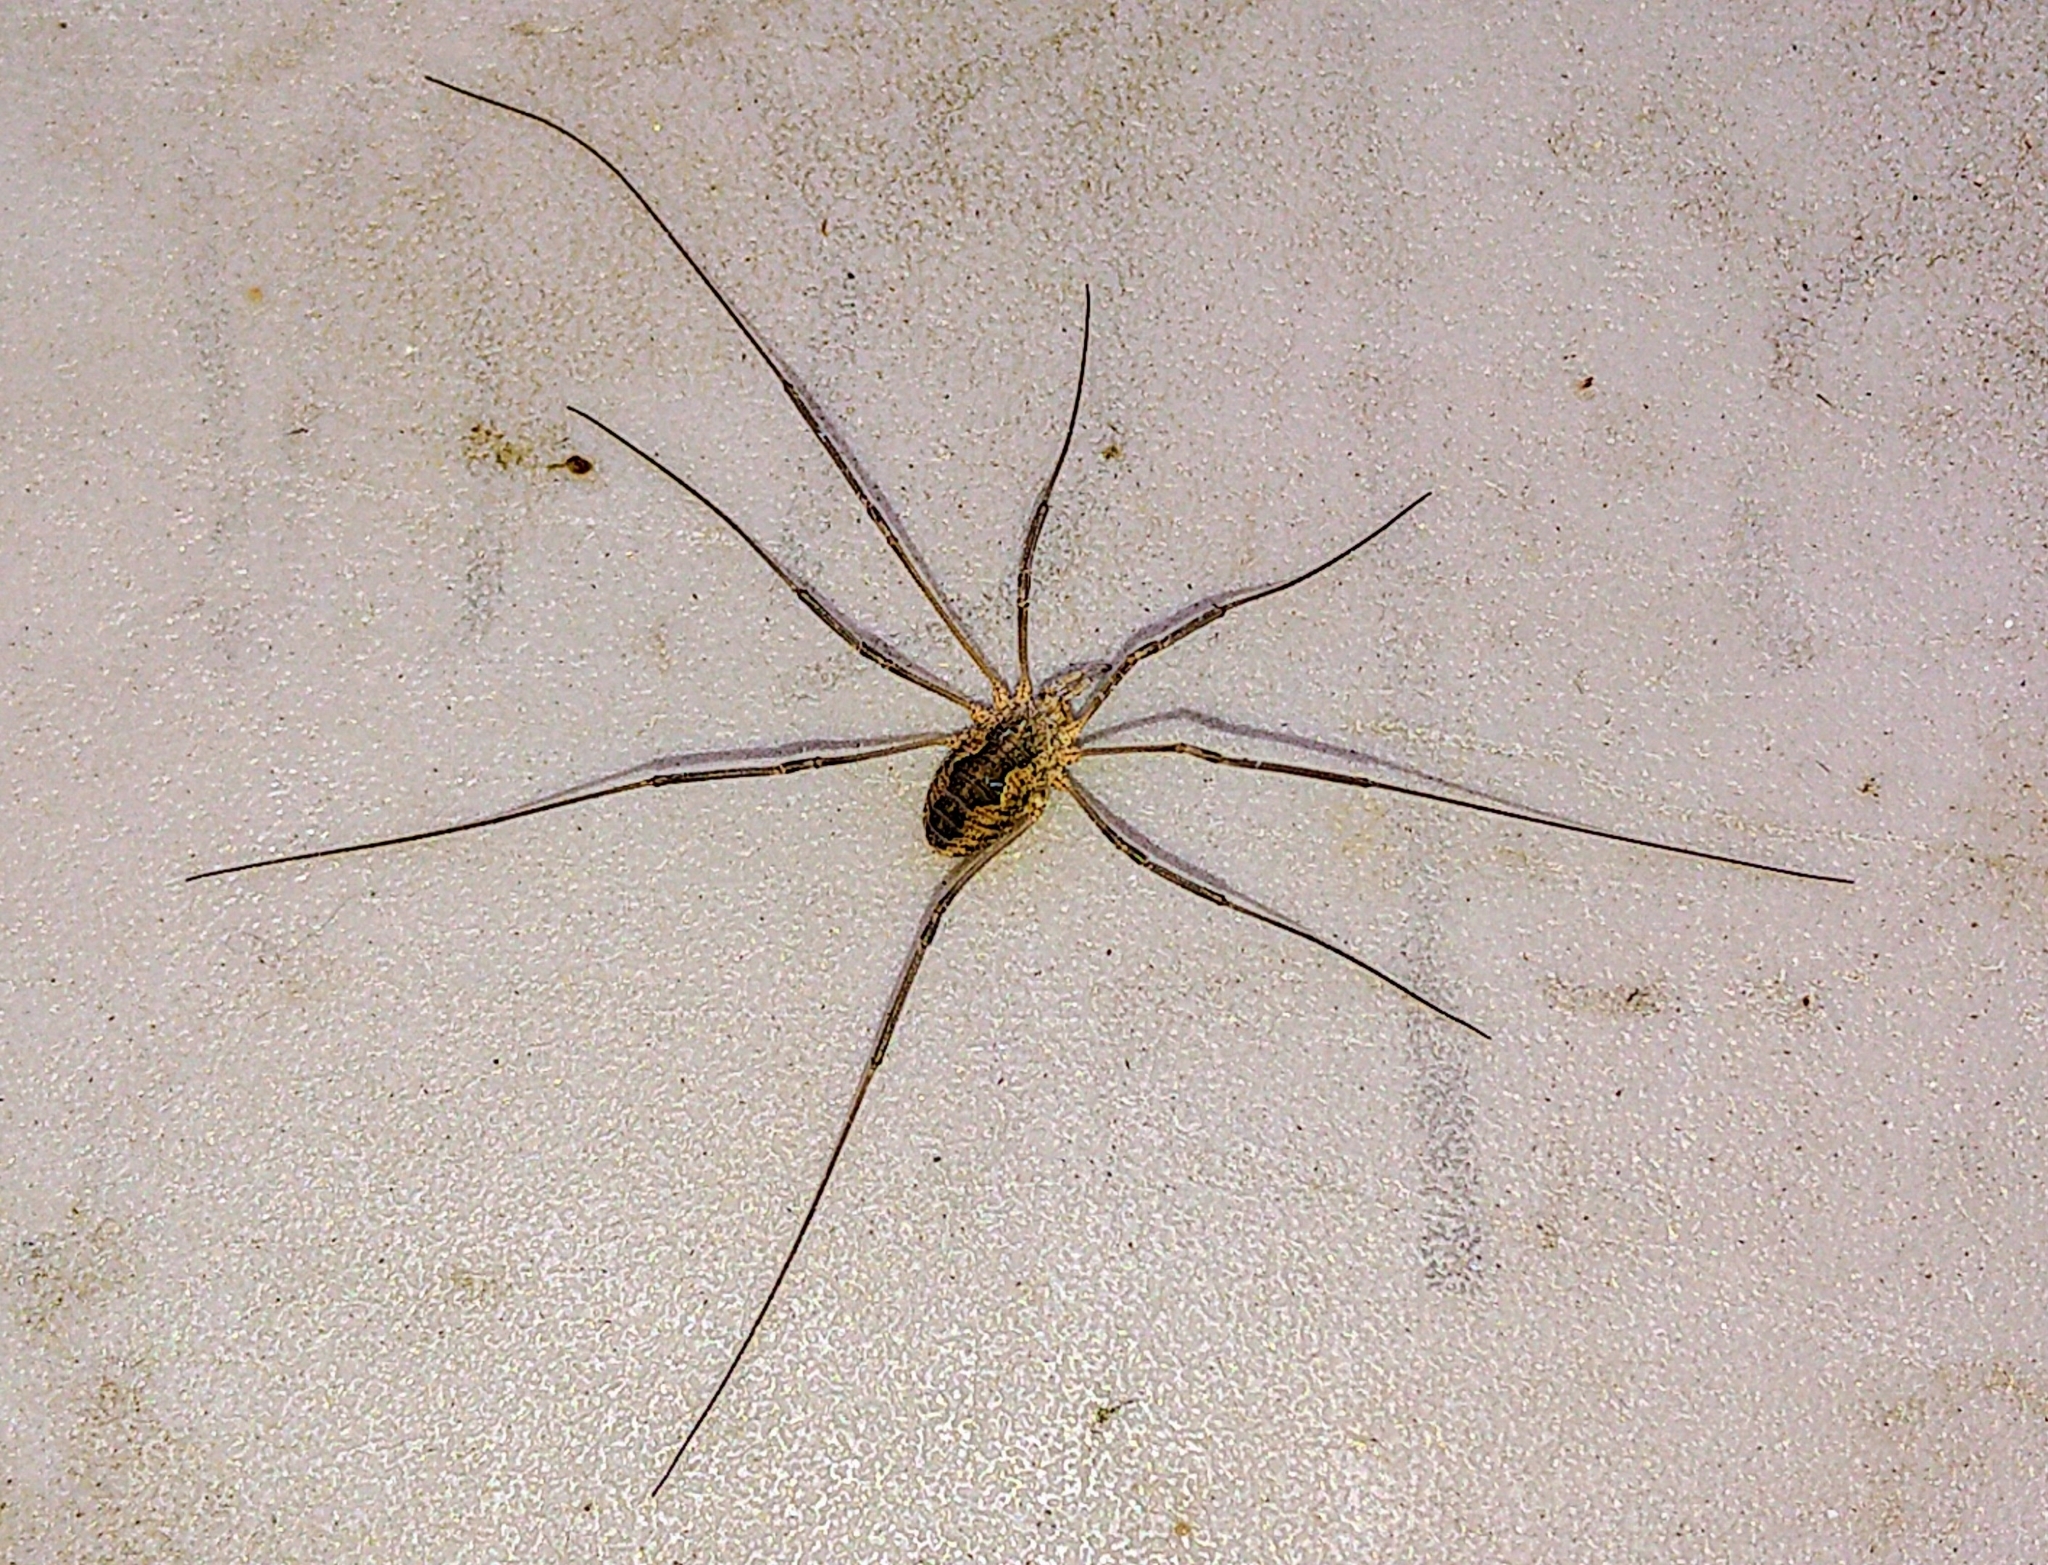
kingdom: Animalia
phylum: Arthropoda
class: Arachnida
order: Opiliones
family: Phalangiidae
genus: Phalangium
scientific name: Phalangium opilio
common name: Daddy longleg
